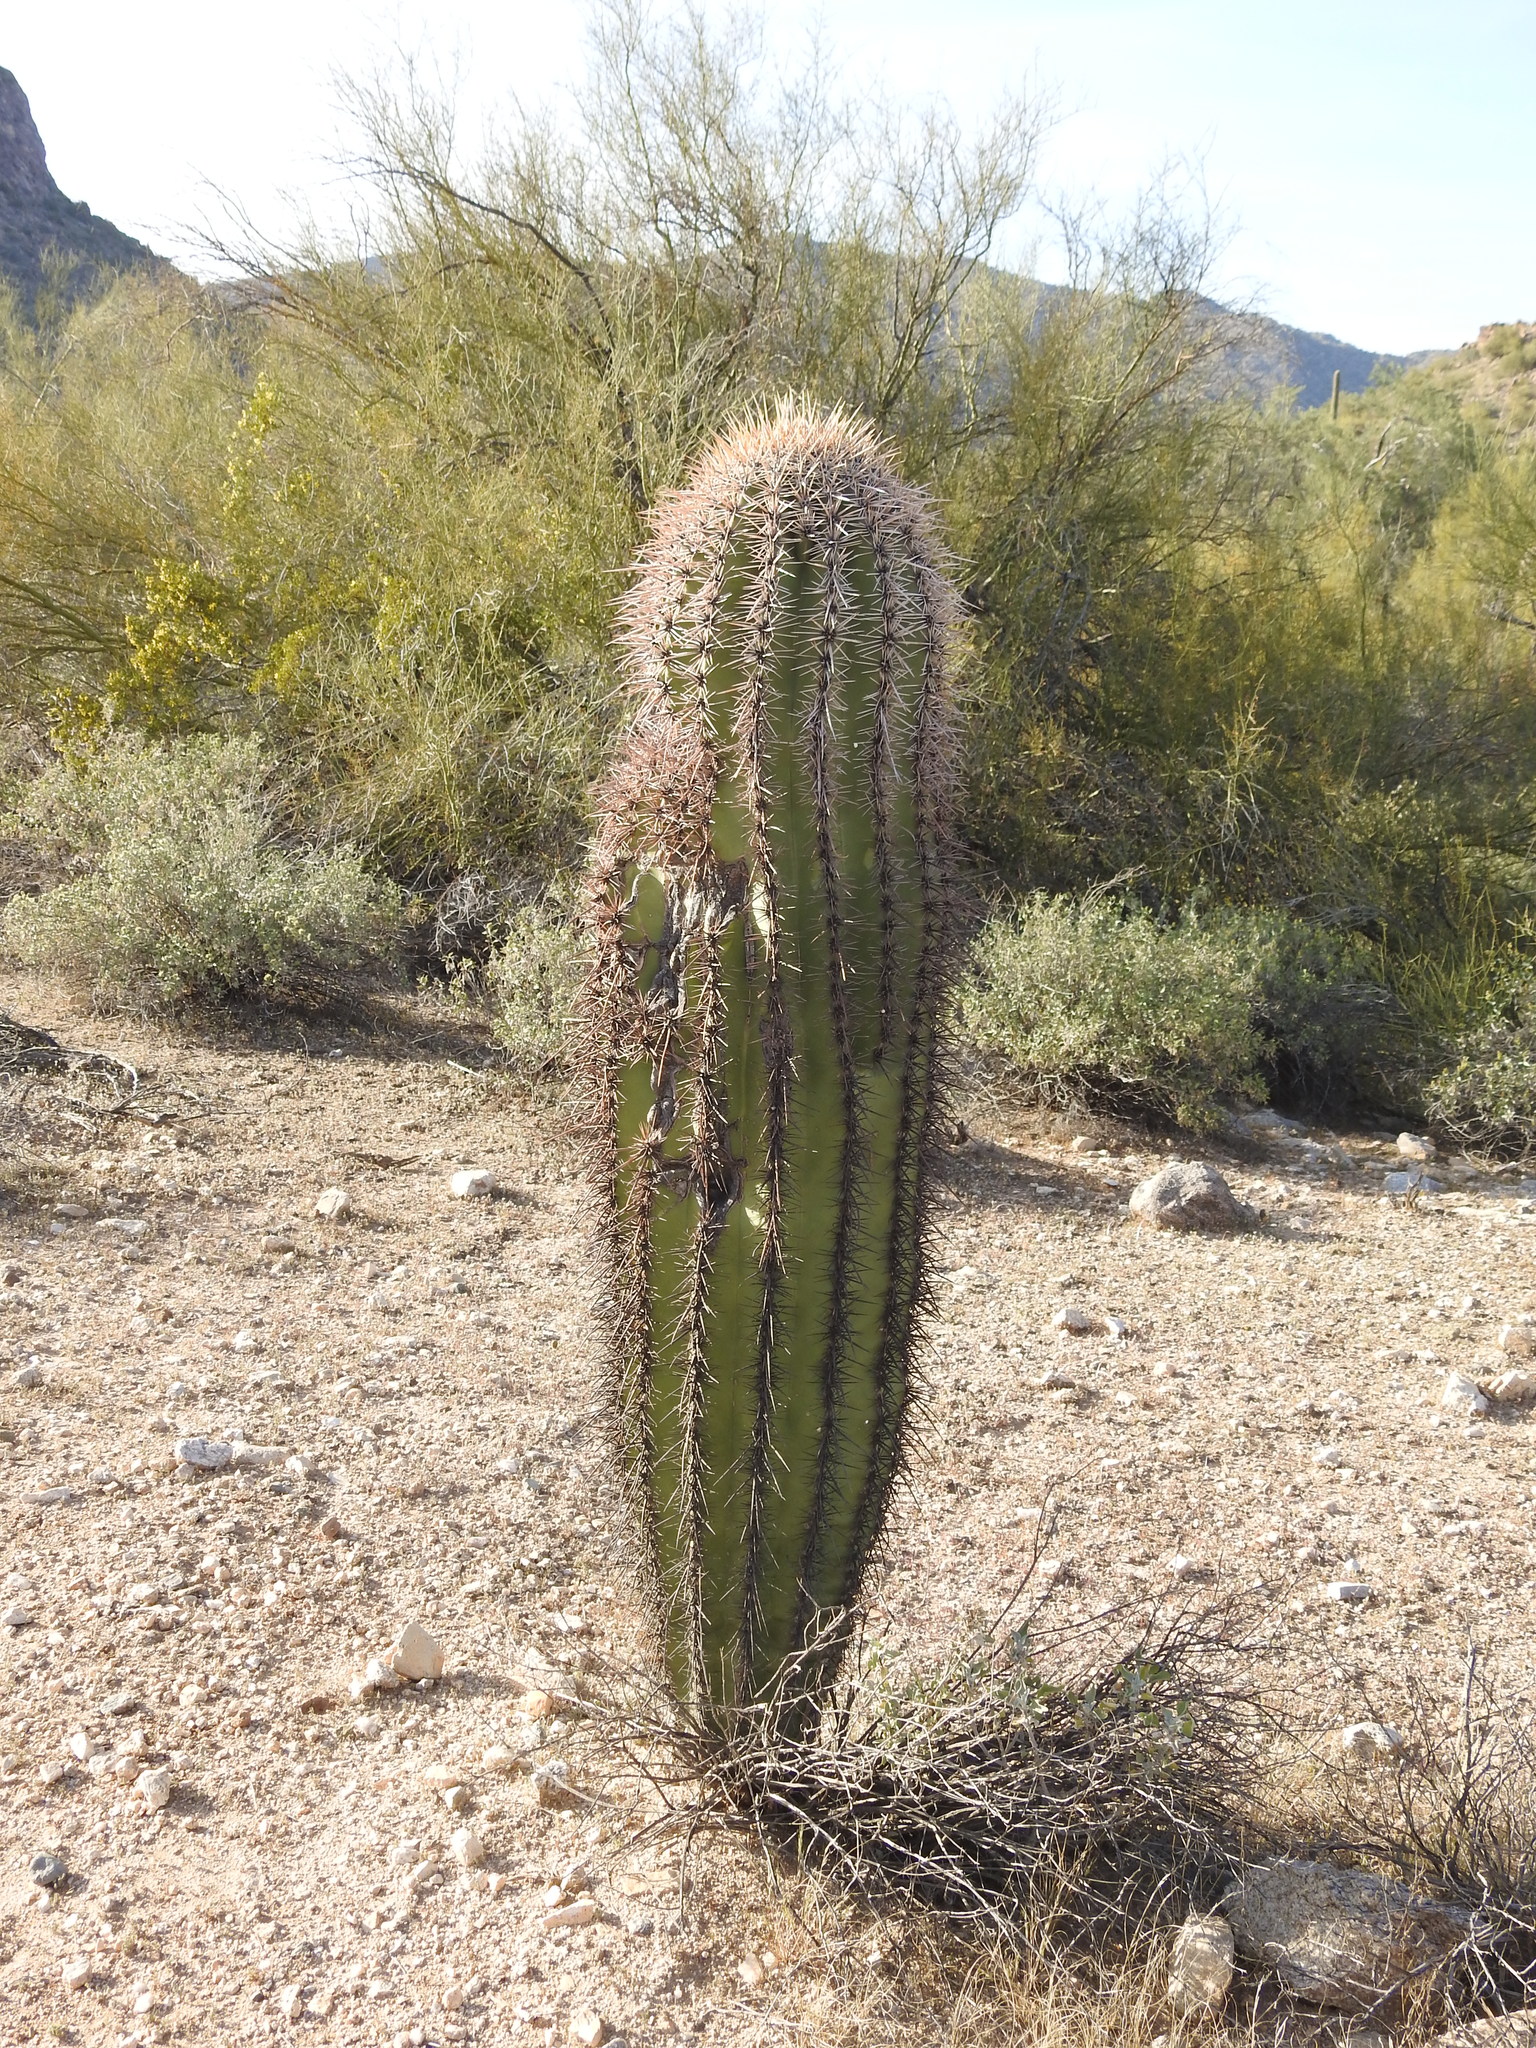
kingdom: Plantae
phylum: Tracheophyta
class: Magnoliopsida
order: Caryophyllales
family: Cactaceae
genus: Carnegiea
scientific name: Carnegiea gigantea
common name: Saguaro
